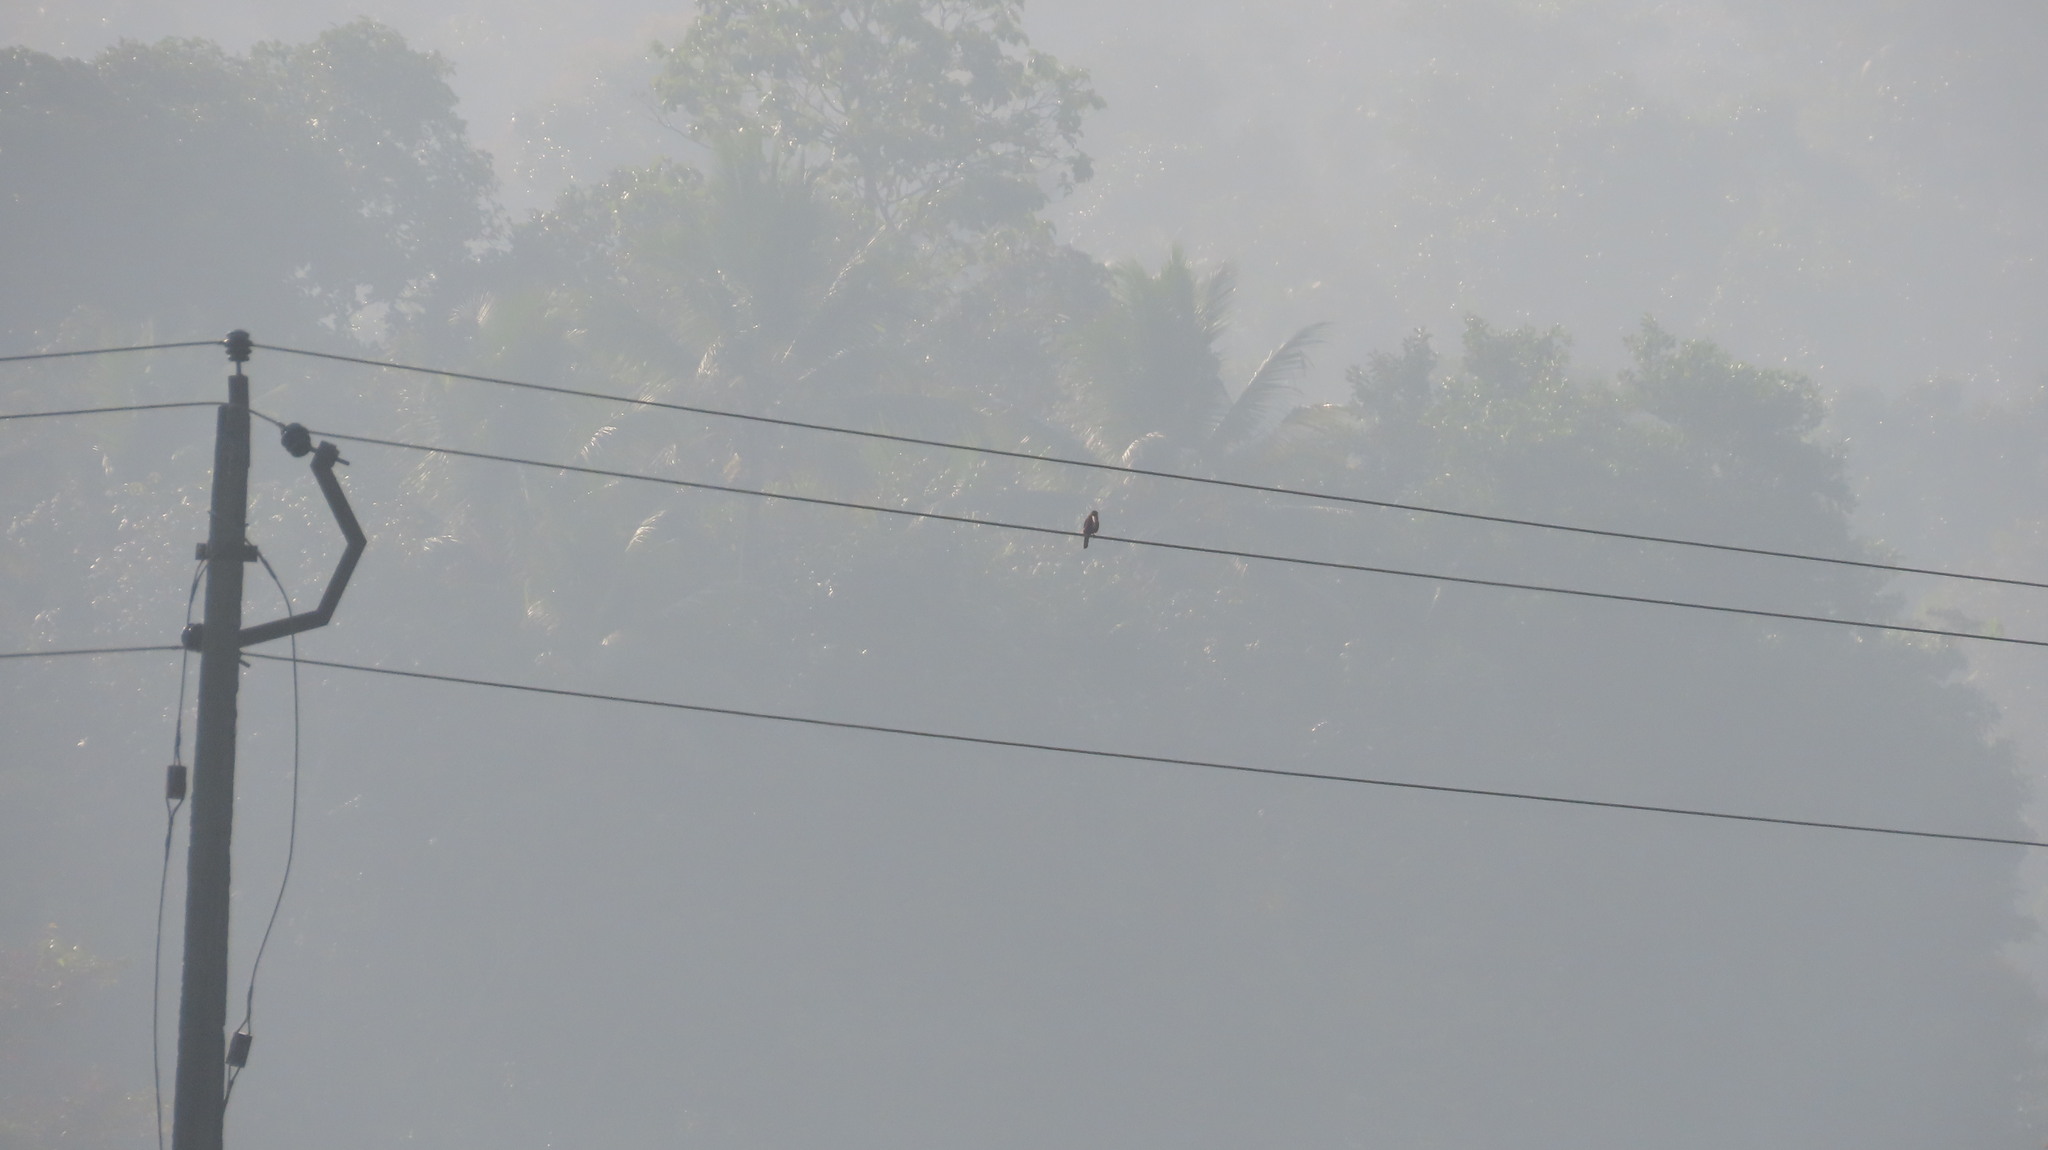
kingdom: Animalia
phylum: Chordata
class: Aves
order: Coraciiformes
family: Alcedinidae
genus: Halcyon
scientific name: Halcyon smyrnensis
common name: White-throated kingfisher
